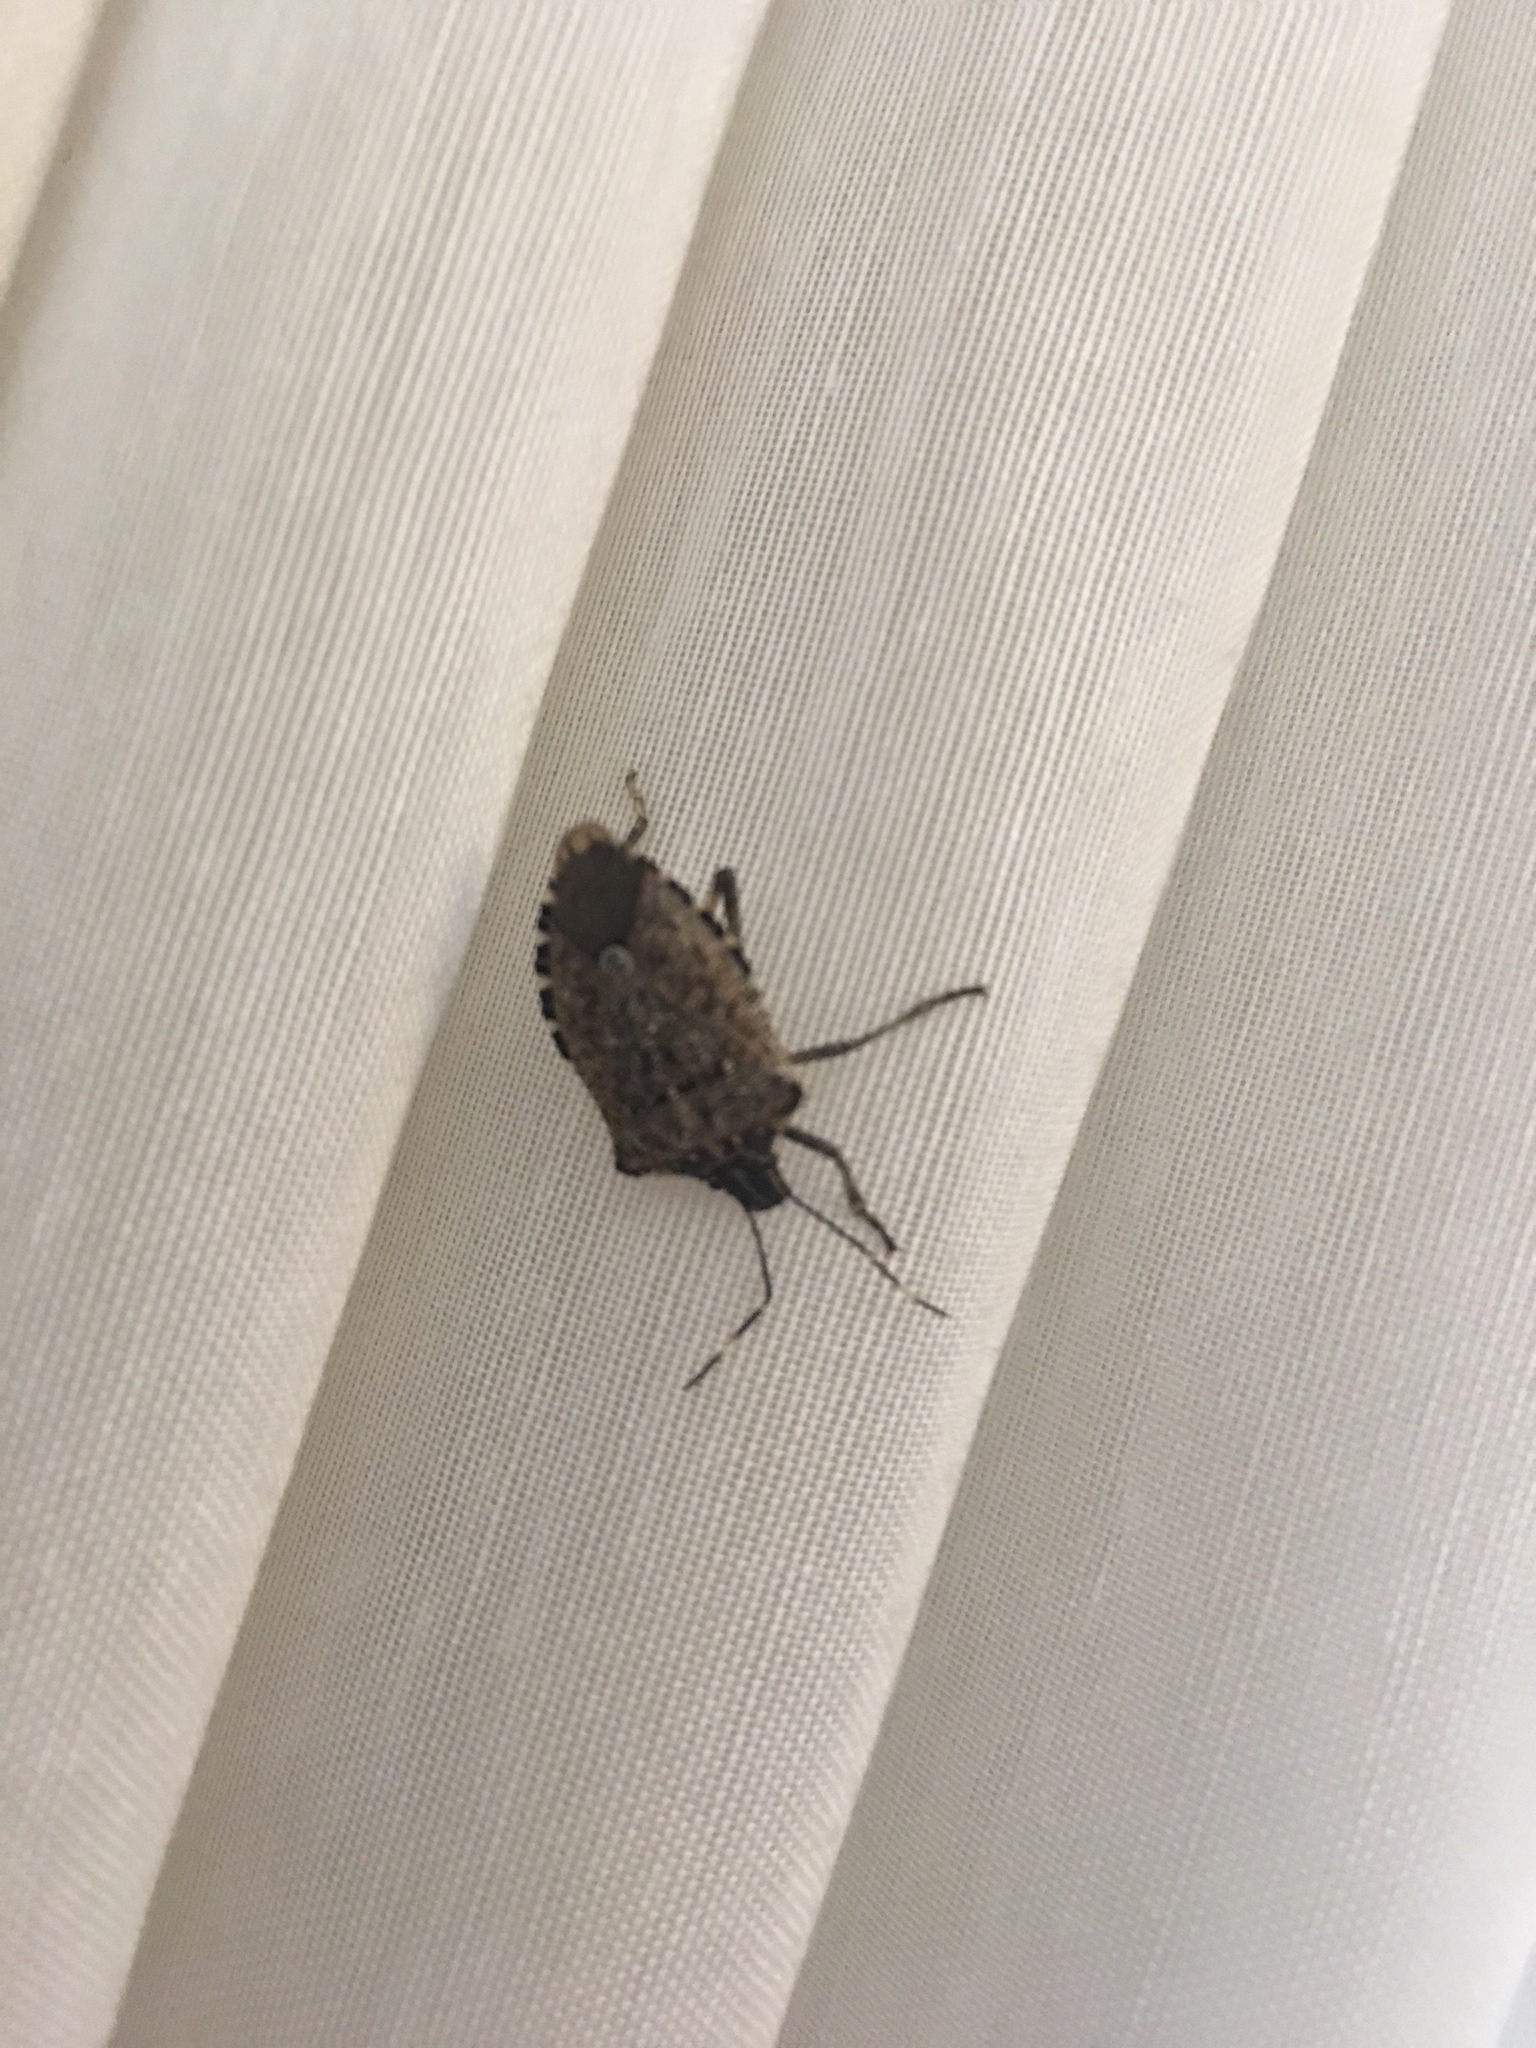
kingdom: Animalia
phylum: Arthropoda
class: Insecta
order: Hemiptera
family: Pentatomidae
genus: Halyomorpha
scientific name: Halyomorpha halys
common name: Brown marmorated stink bug
